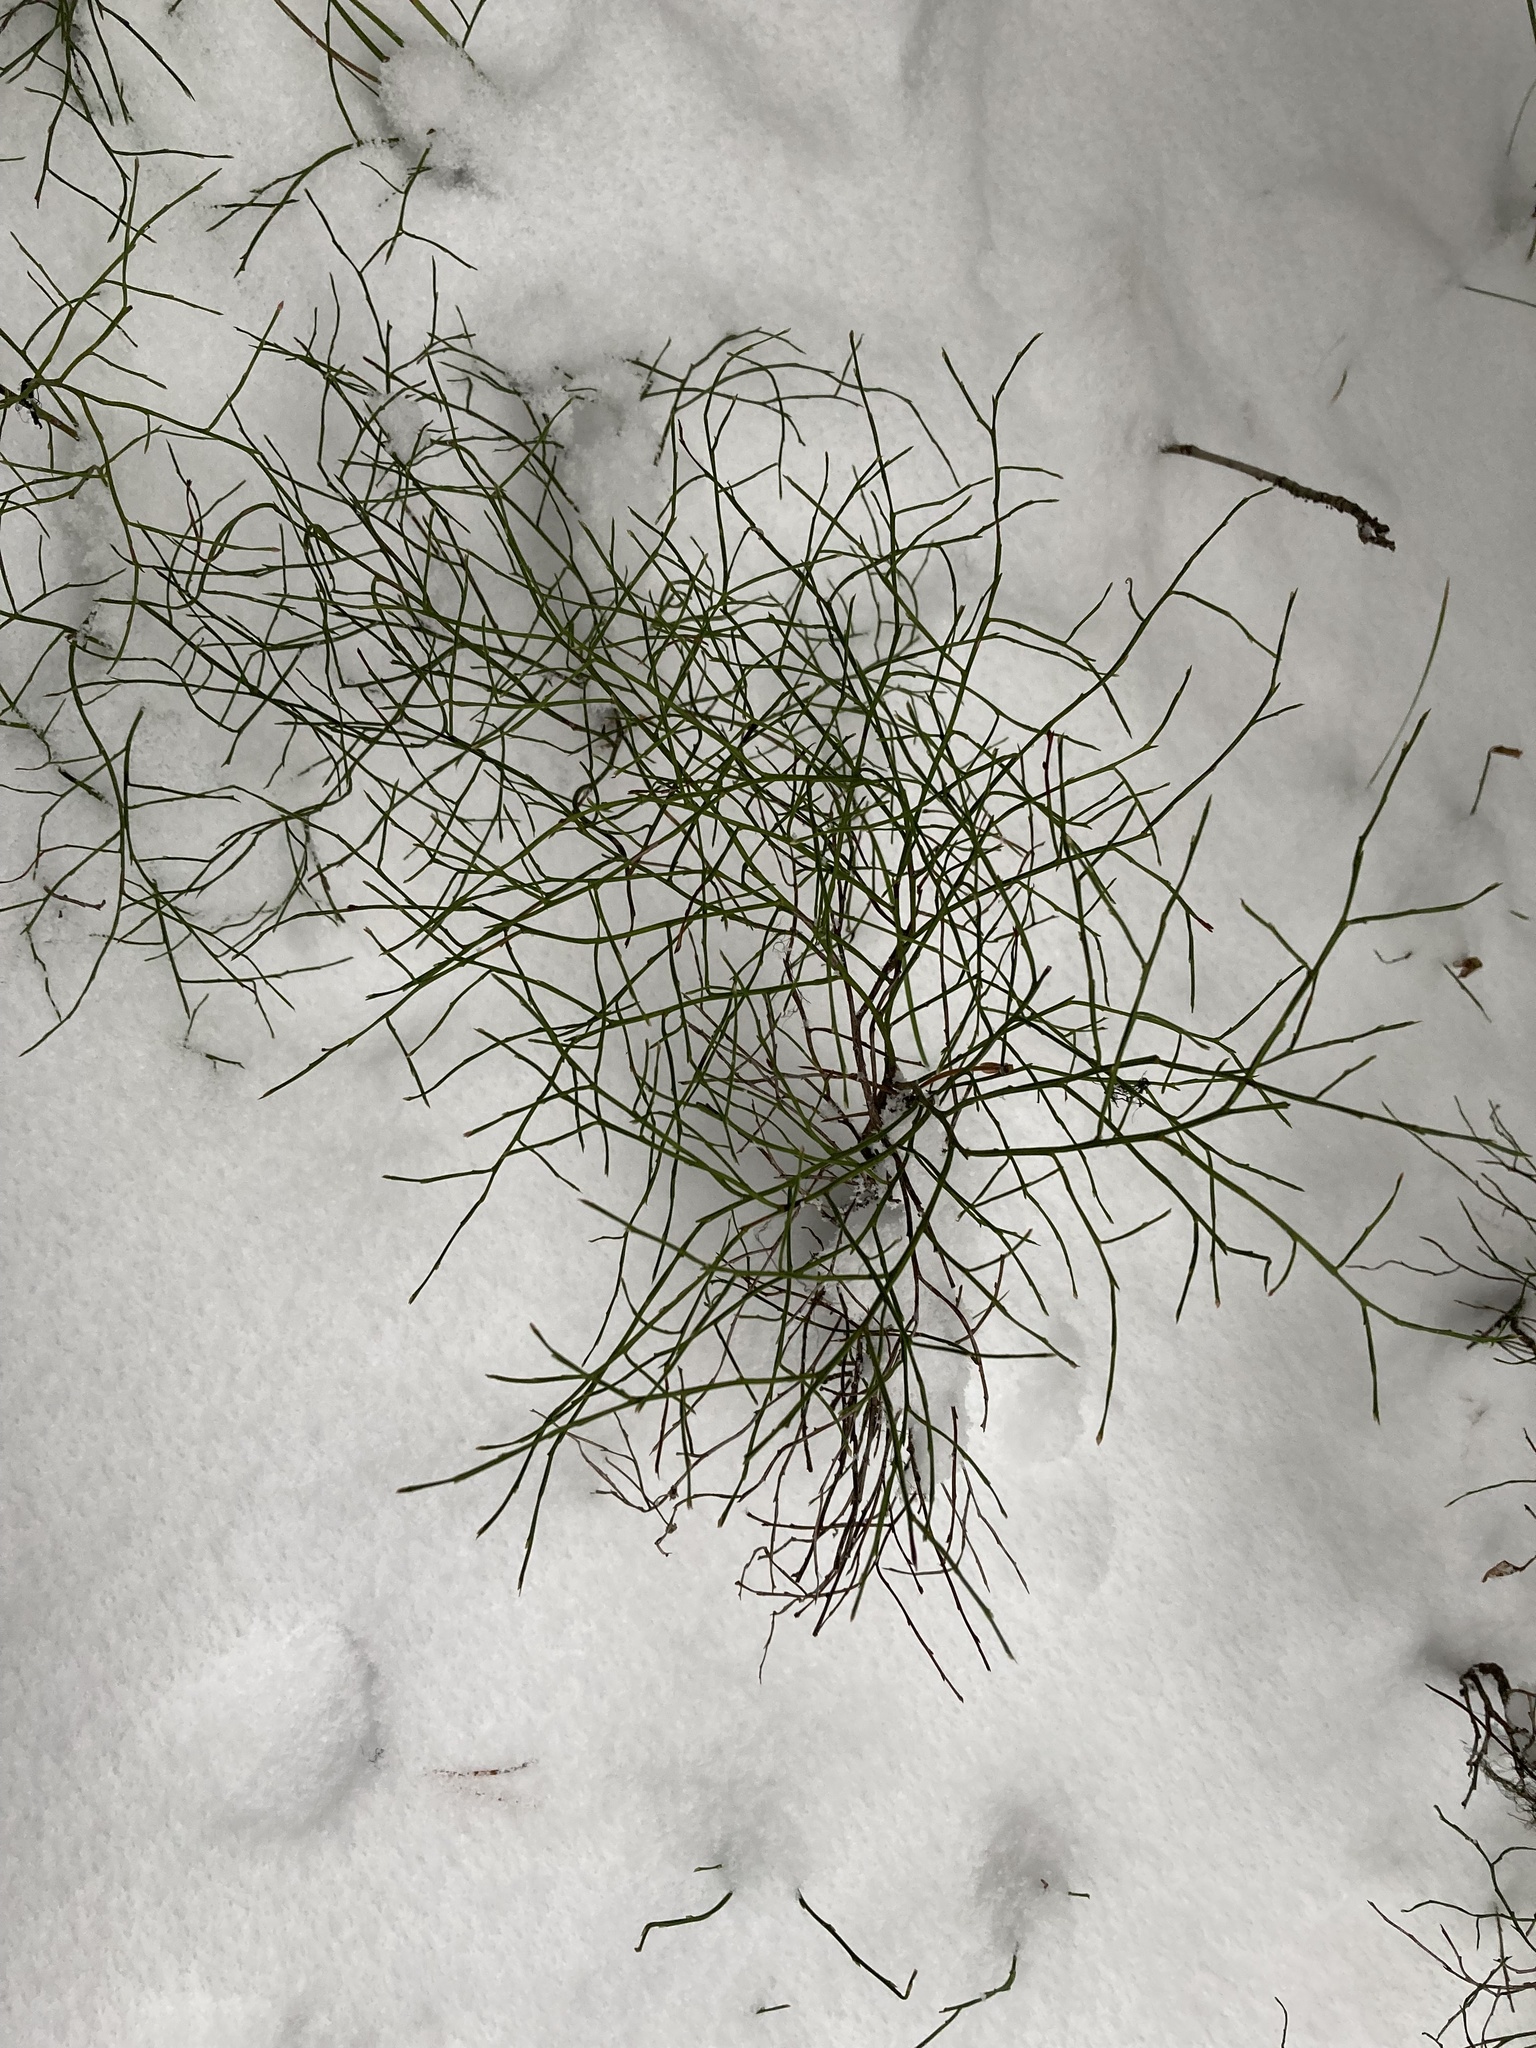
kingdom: Plantae
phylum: Tracheophyta
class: Magnoliopsida
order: Ericales
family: Ericaceae
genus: Vaccinium
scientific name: Vaccinium scoparium
